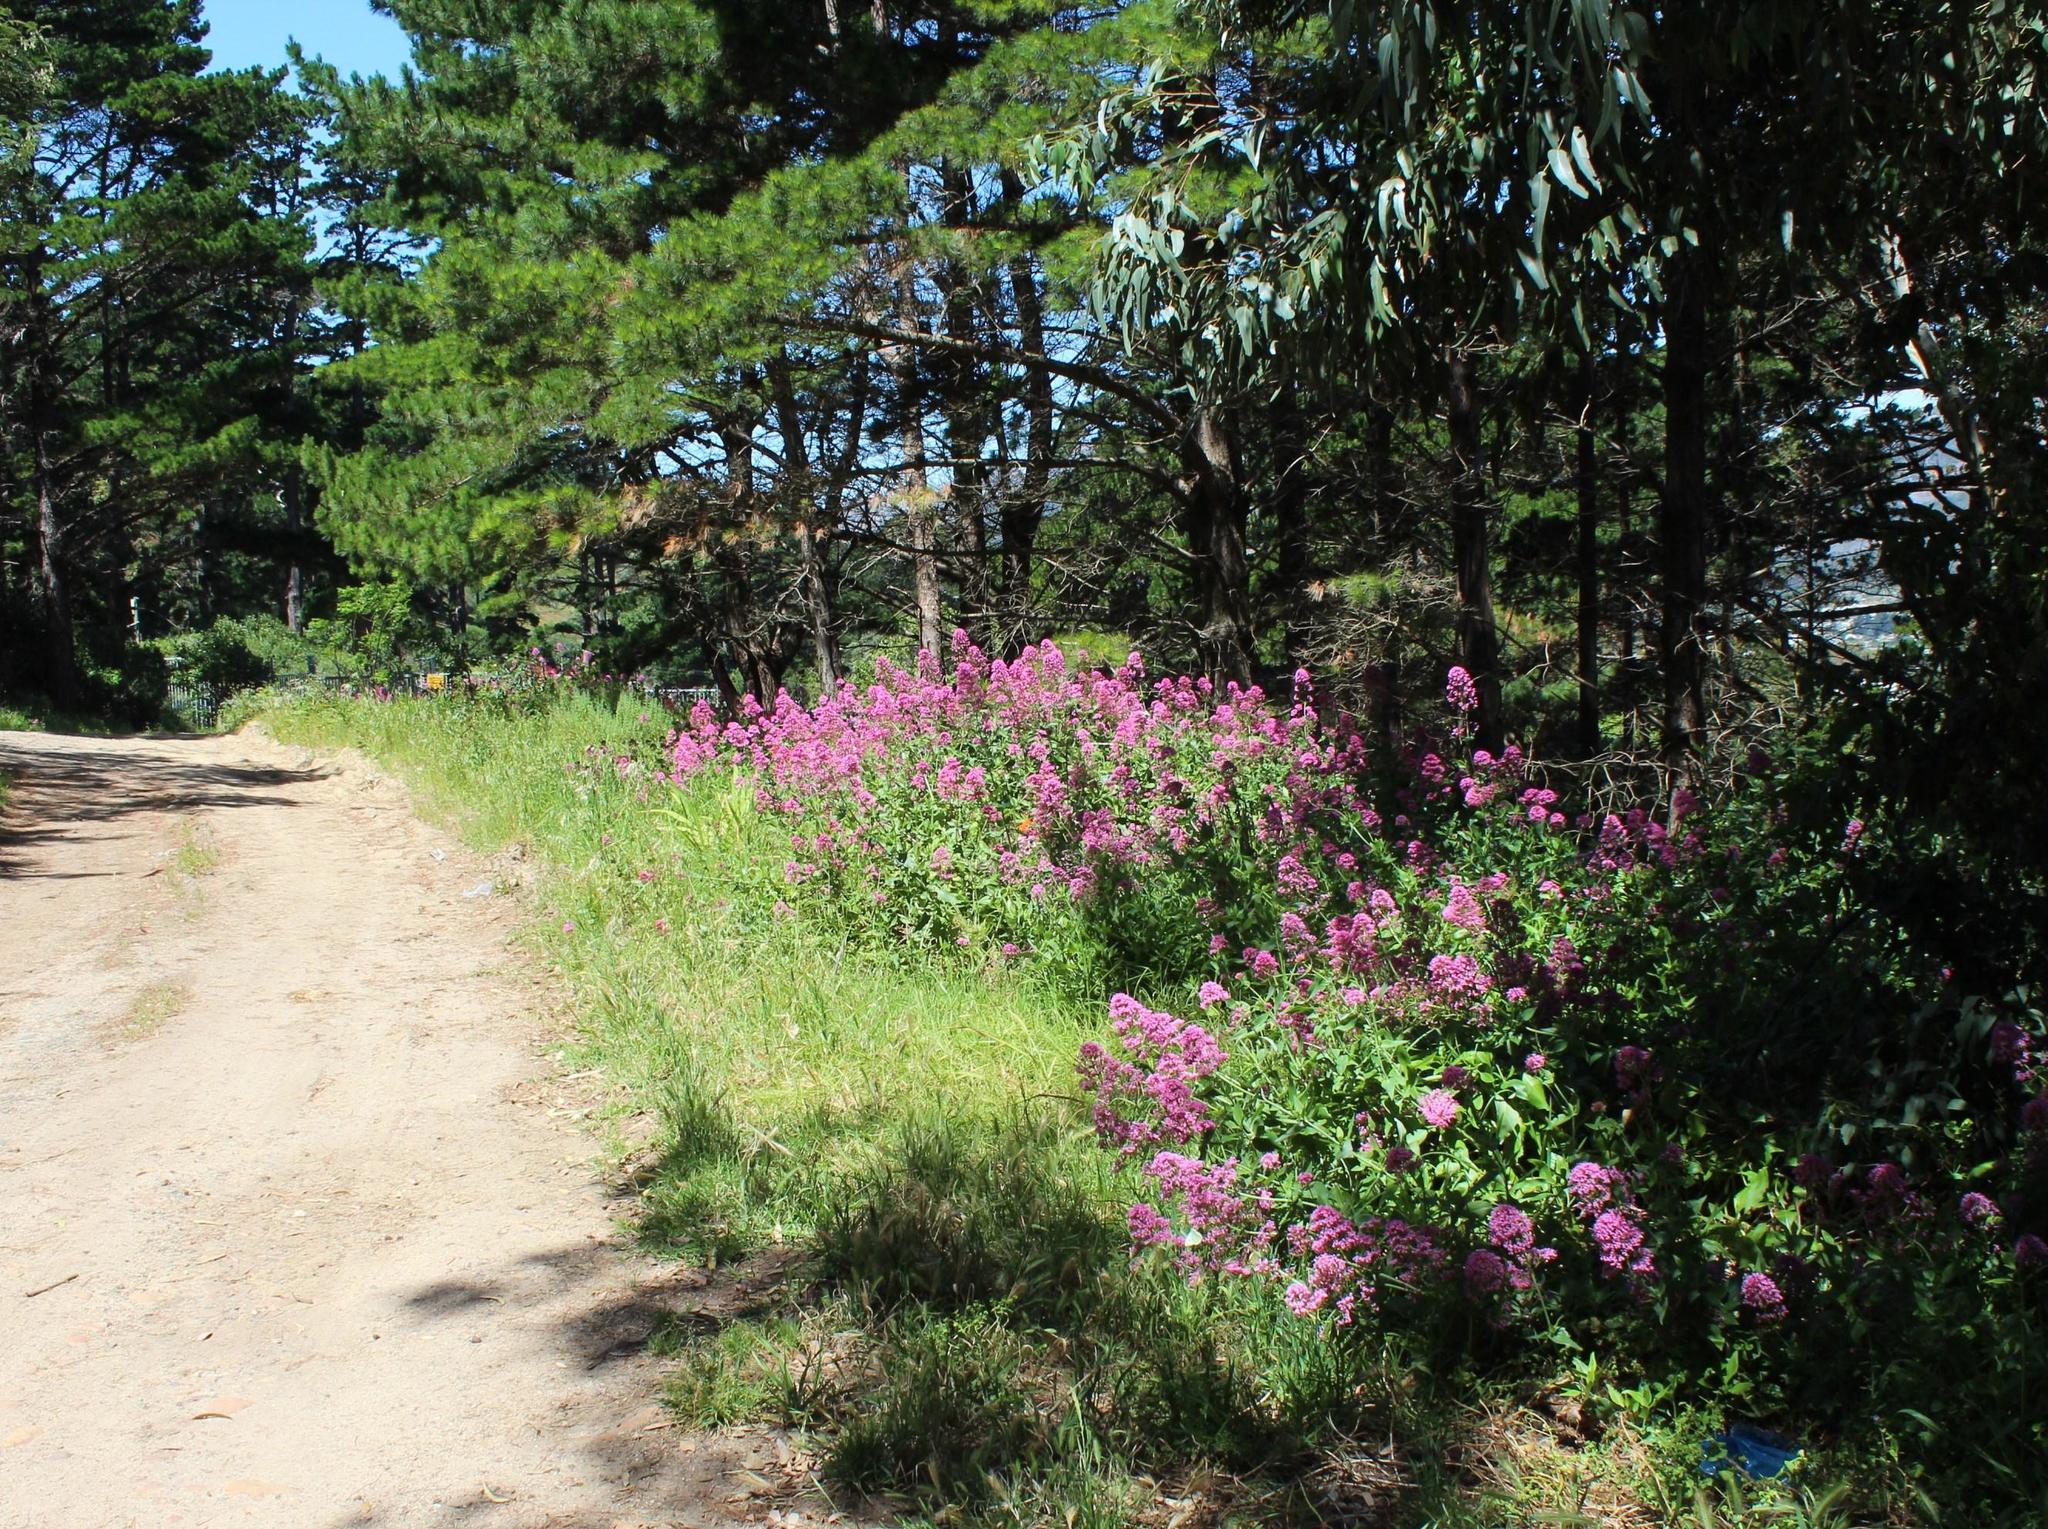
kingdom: Plantae
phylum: Tracheophyta
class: Magnoliopsida
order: Dipsacales
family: Caprifoliaceae
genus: Centranthus
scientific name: Centranthus ruber
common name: Red valerian
